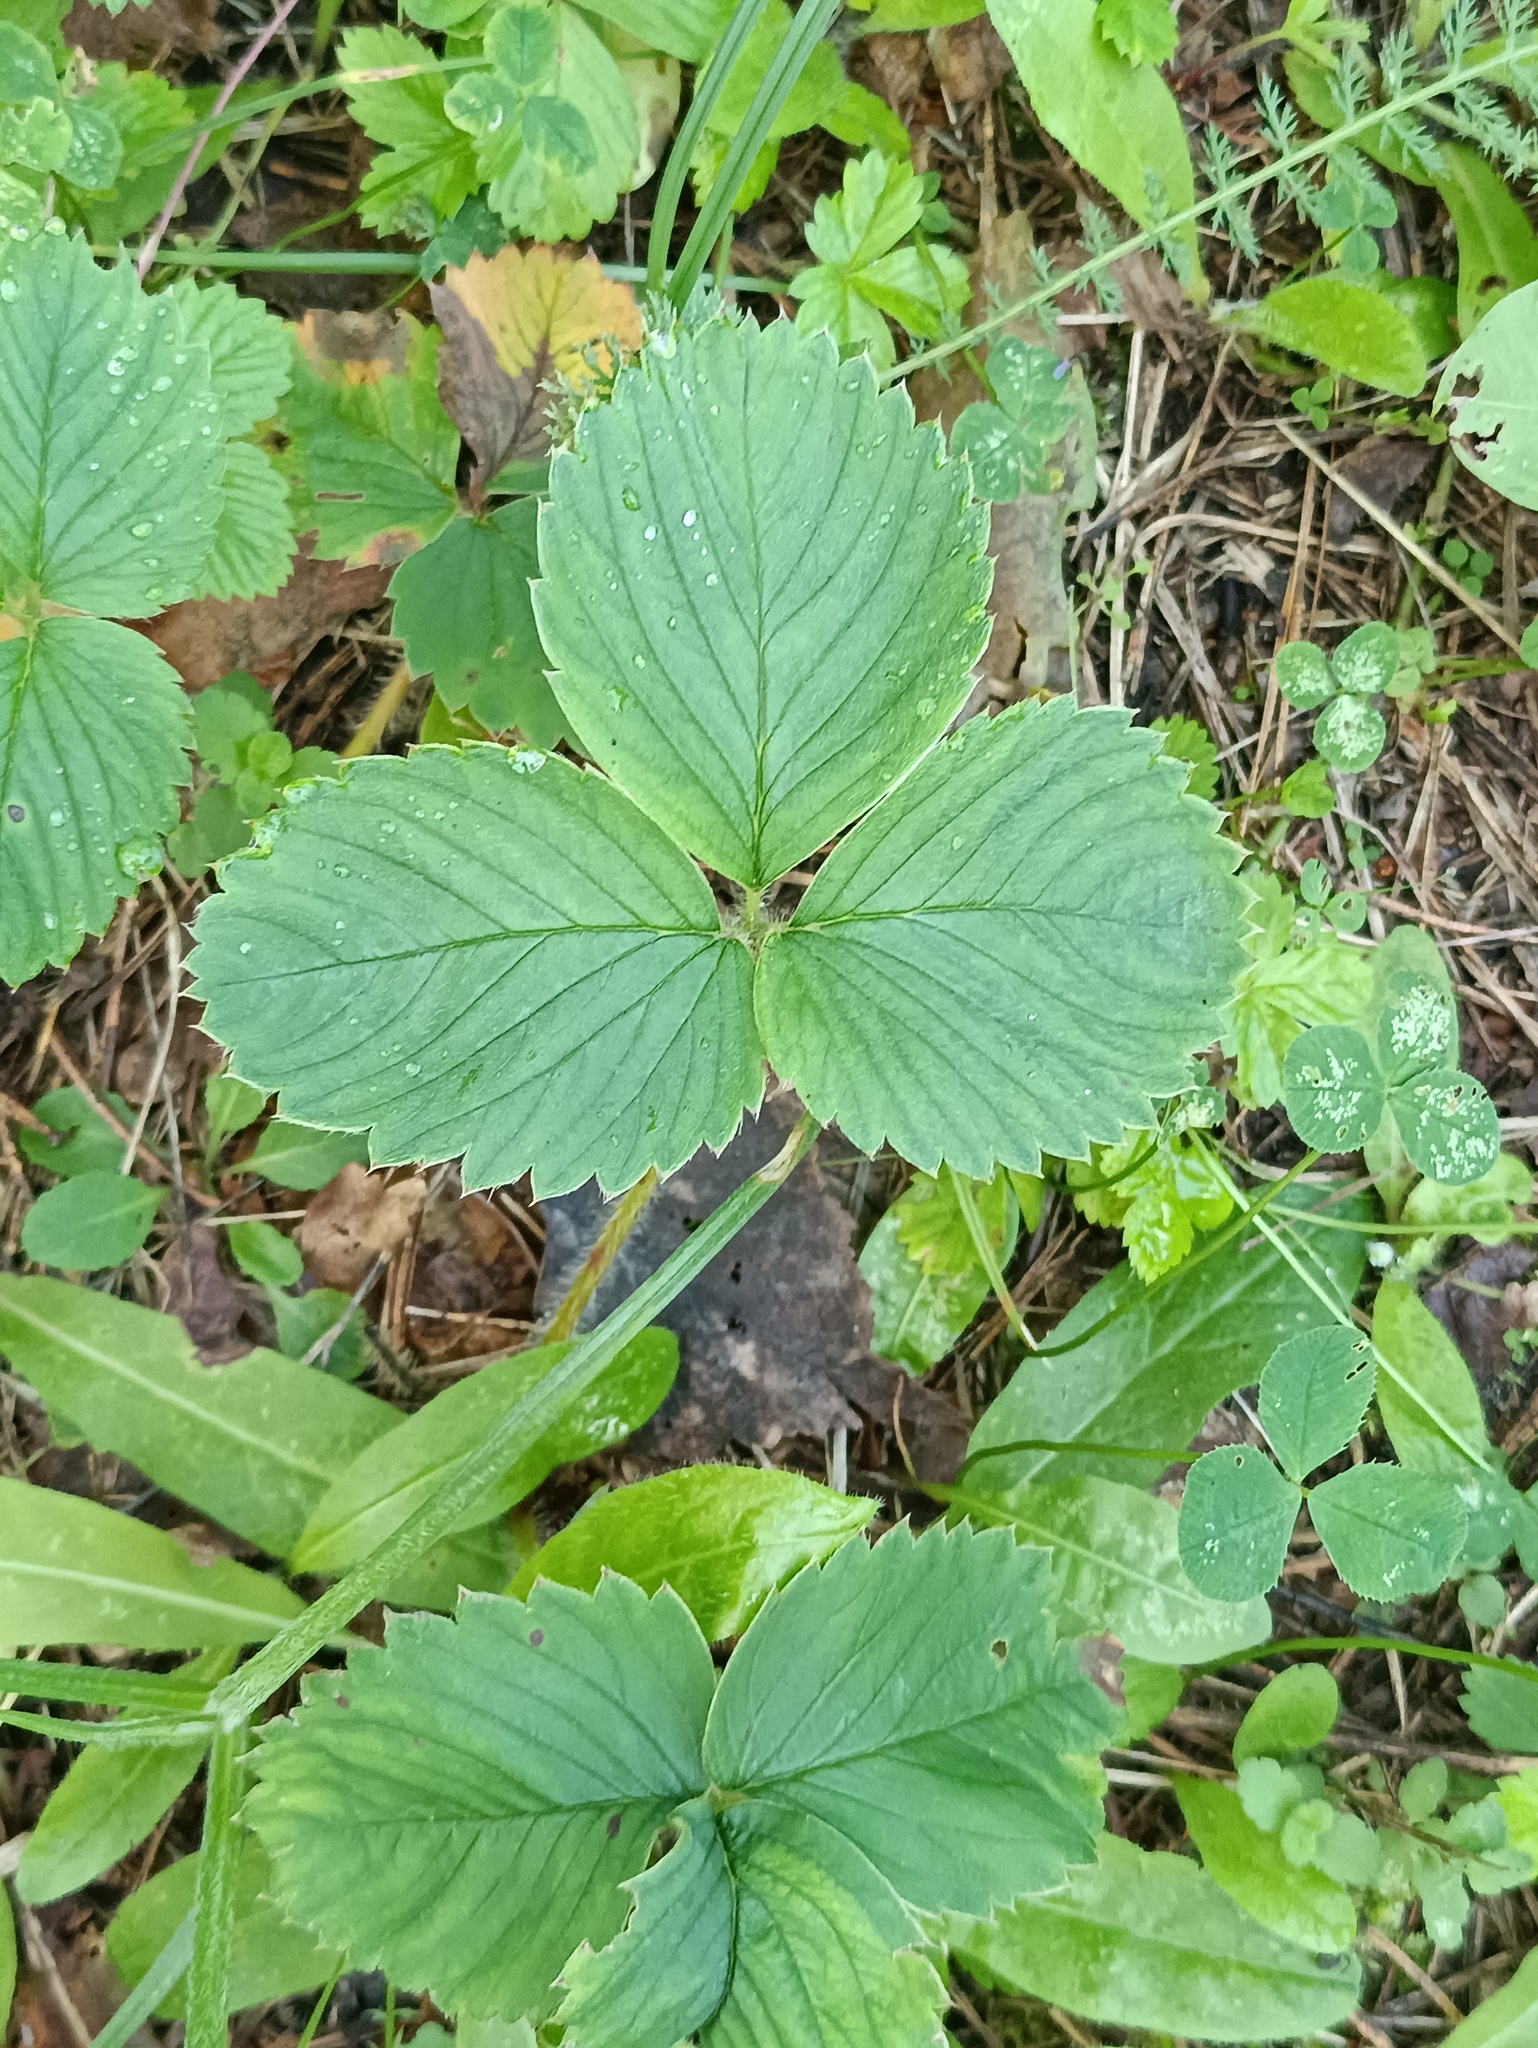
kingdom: Plantae
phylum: Tracheophyta
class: Magnoliopsida
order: Rosales
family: Rosaceae
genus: Fragaria
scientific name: Fragaria viridis
